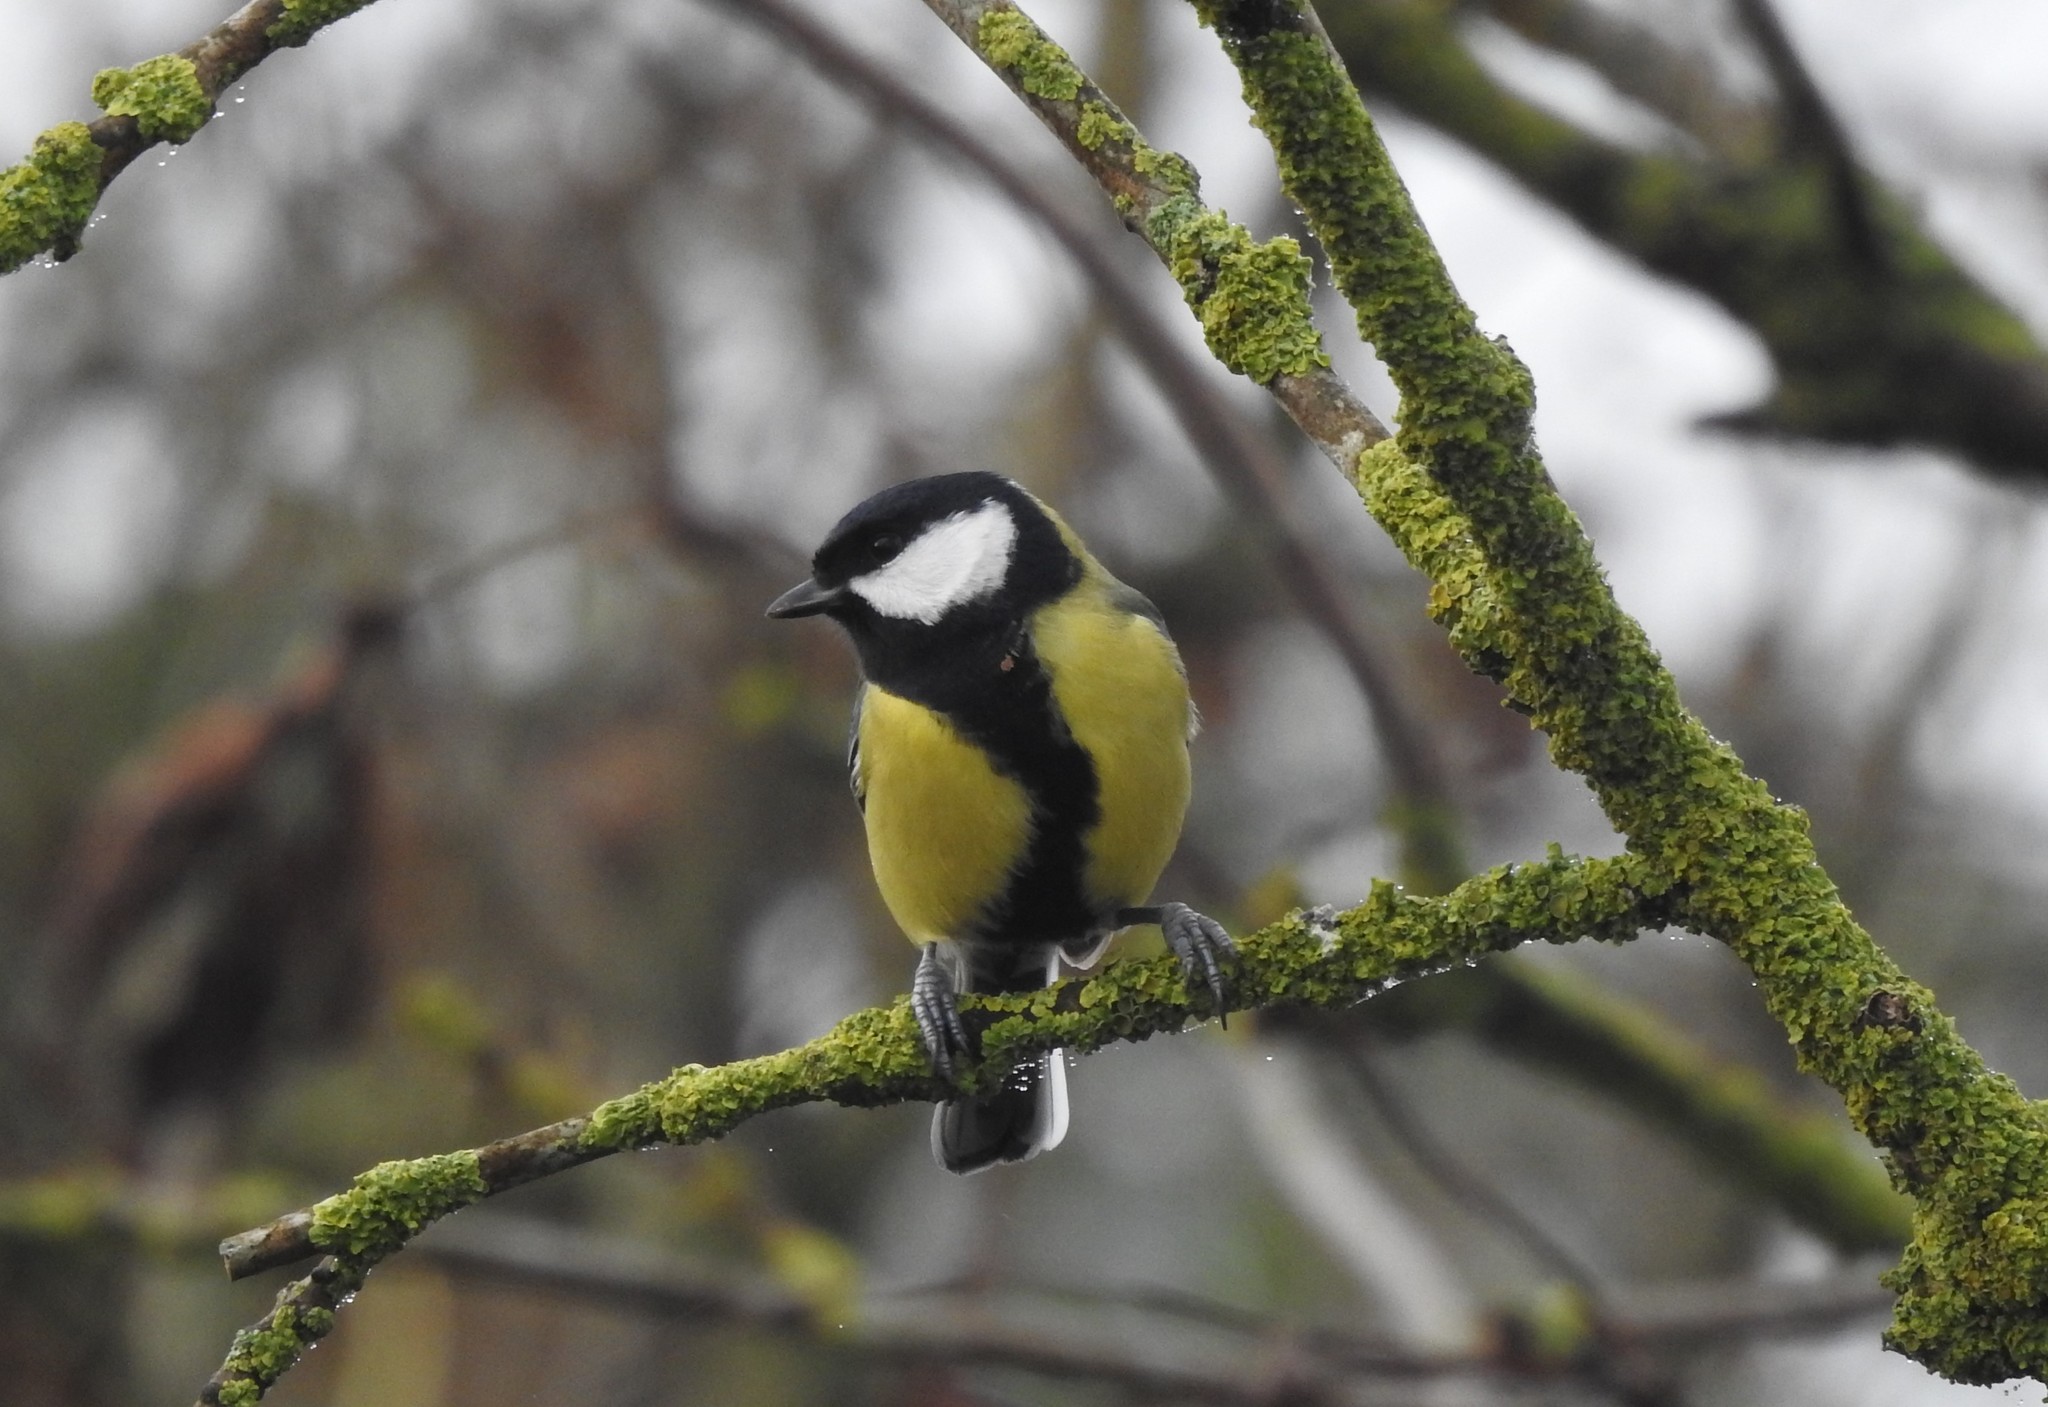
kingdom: Animalia
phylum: Chordata
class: Aves
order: Passeriformes
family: Paridae
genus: Parus
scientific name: Parus major
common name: Great tit
